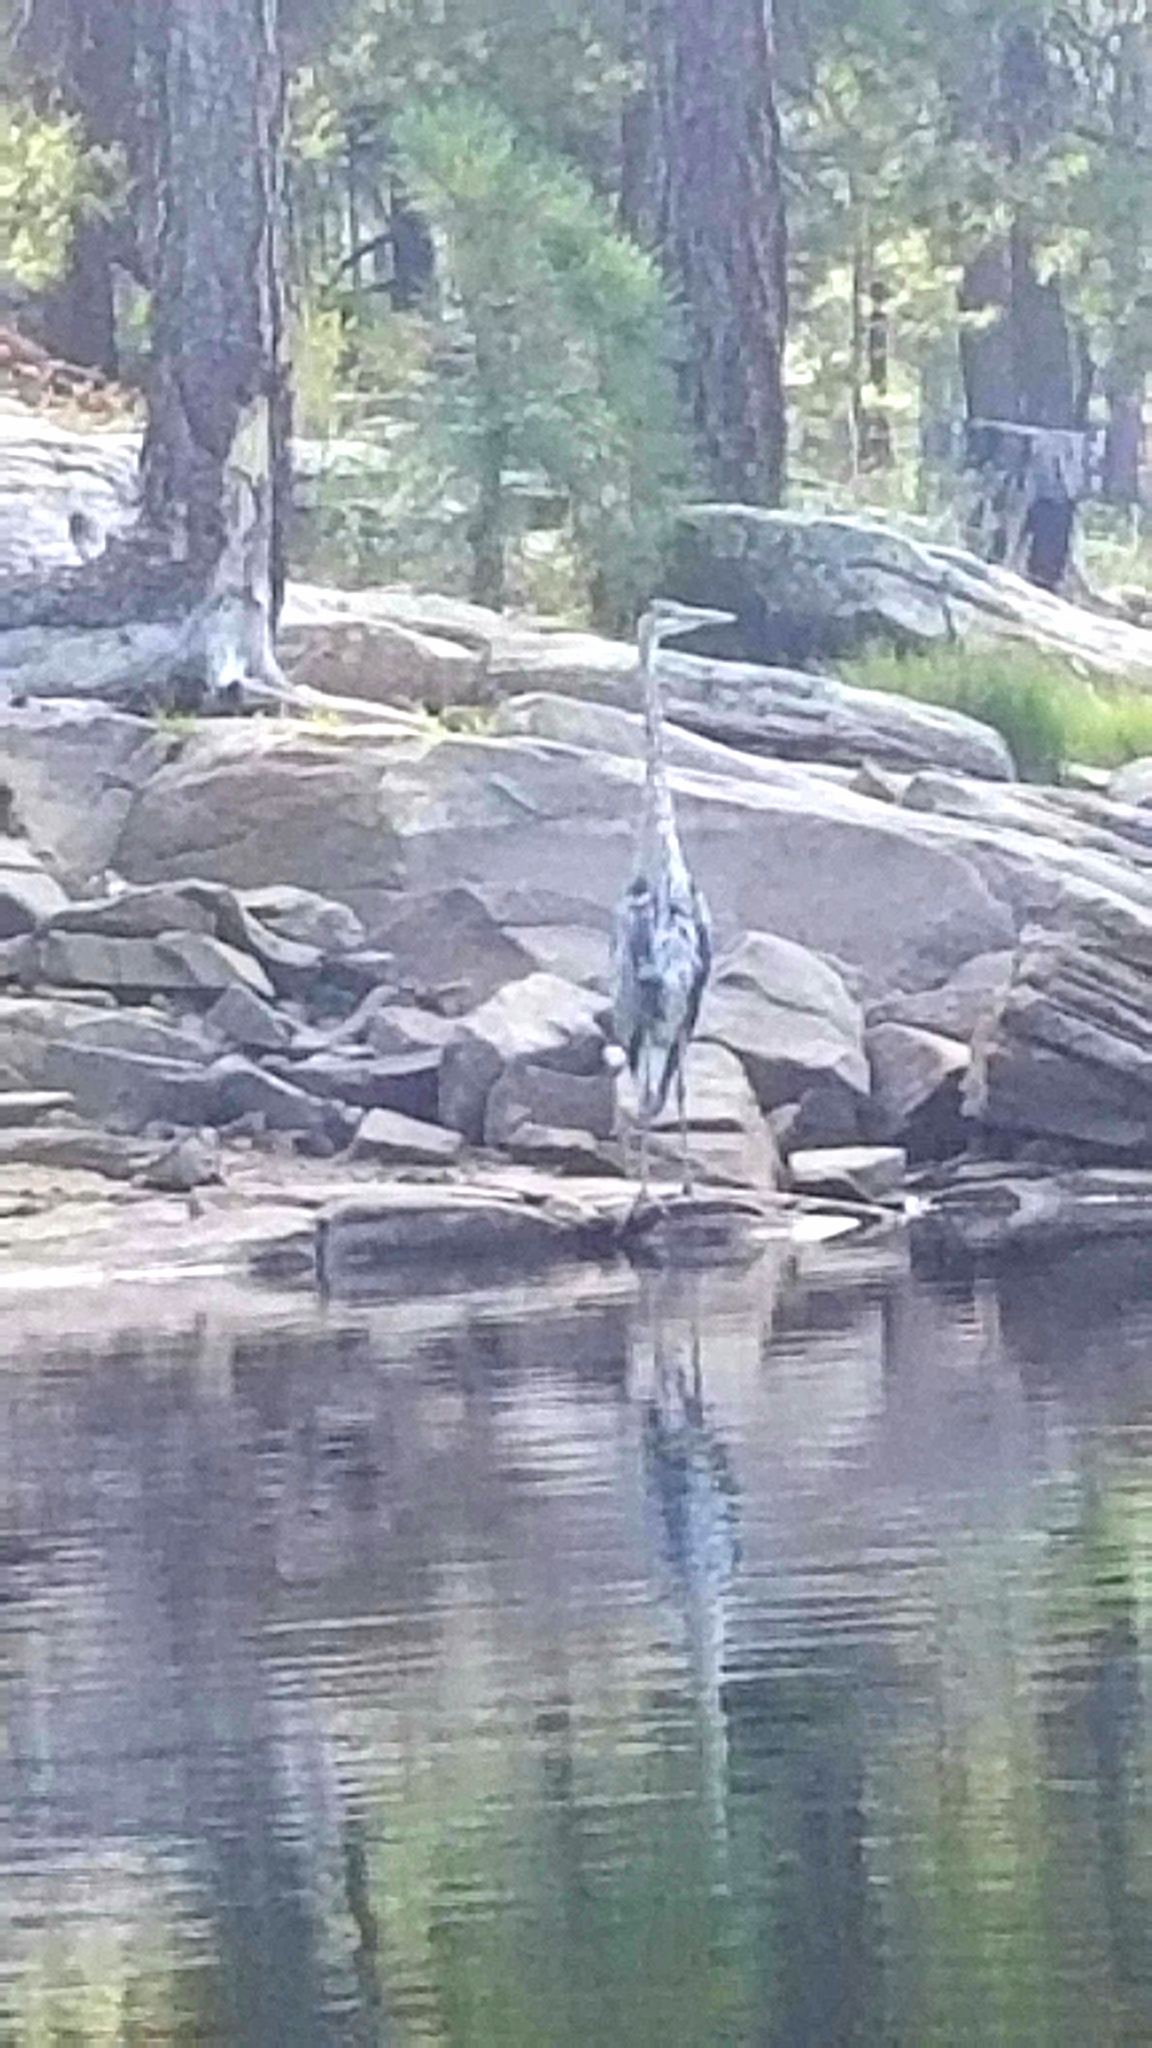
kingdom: Animalia
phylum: Chordata
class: Aves
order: Pelecaniformes
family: Ardeidae
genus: Ardea
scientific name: Ardea herodias
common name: Great blue heron
